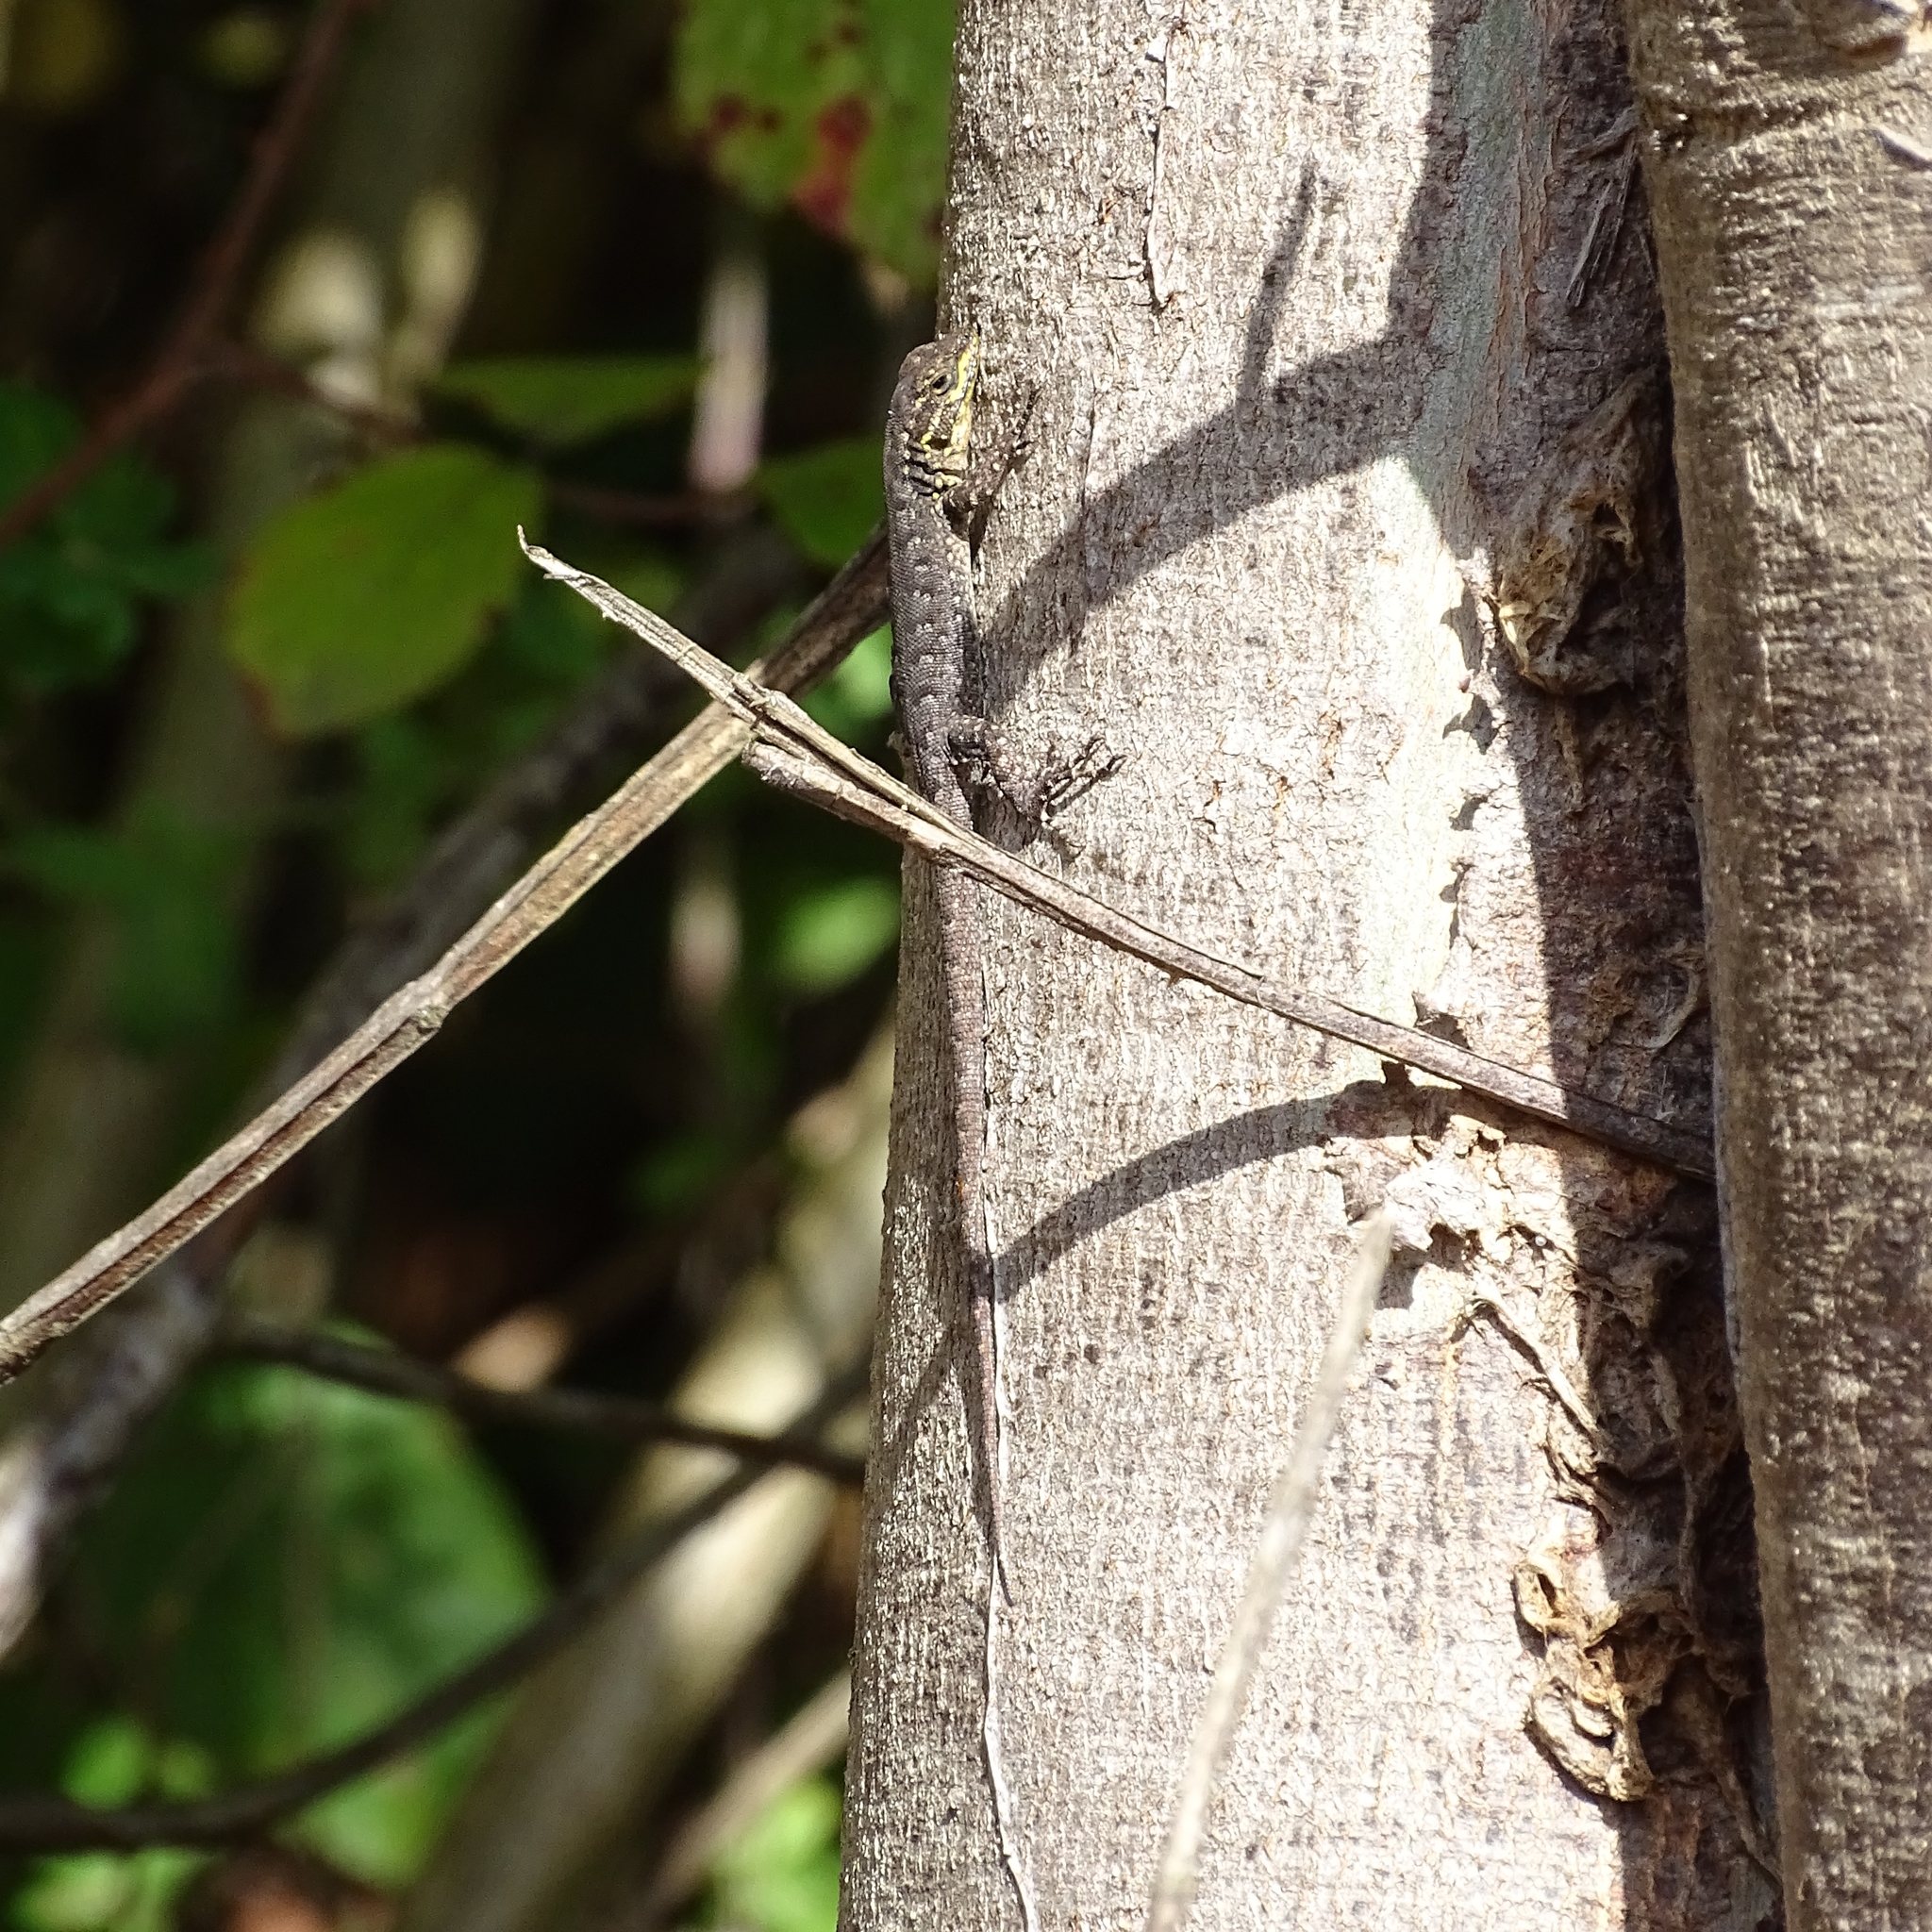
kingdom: Animalia
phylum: Chordata
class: Squamata
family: Liolaemidae
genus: Liolaemus
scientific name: Liolaemus tenuis
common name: Thin tree iguana
